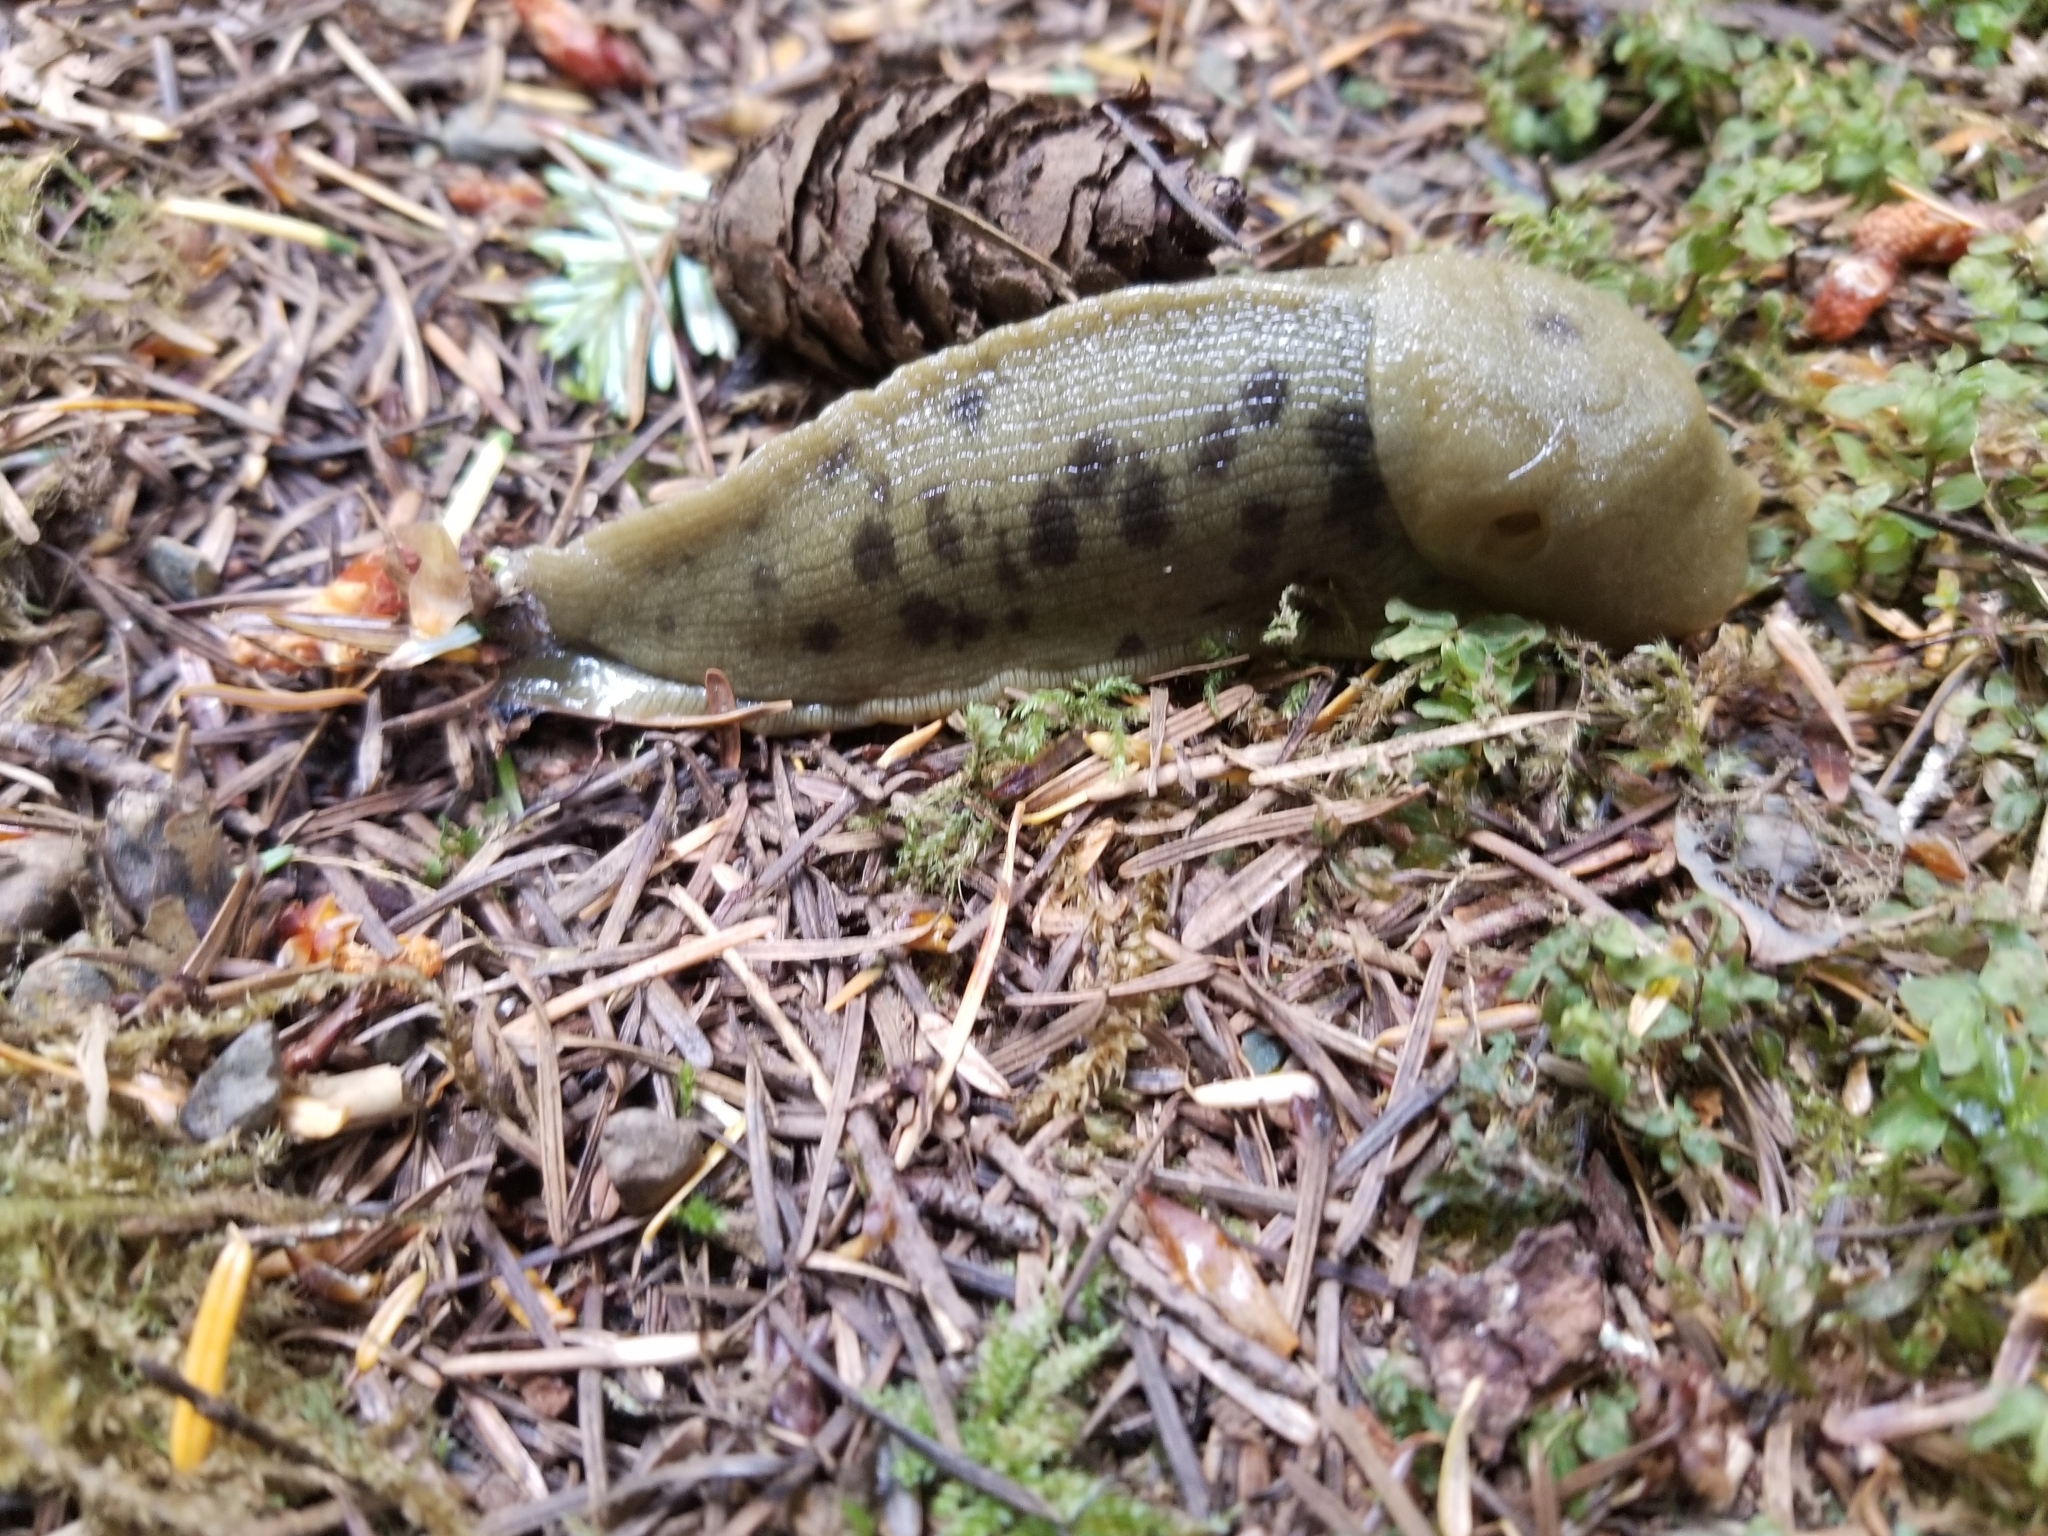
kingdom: Animalia
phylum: Mollusca
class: Gastropoda
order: Stylommatophora
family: Ariolimacidae
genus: Ariolimax
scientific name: Ariolimax columbianus
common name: Pacific banana slug
